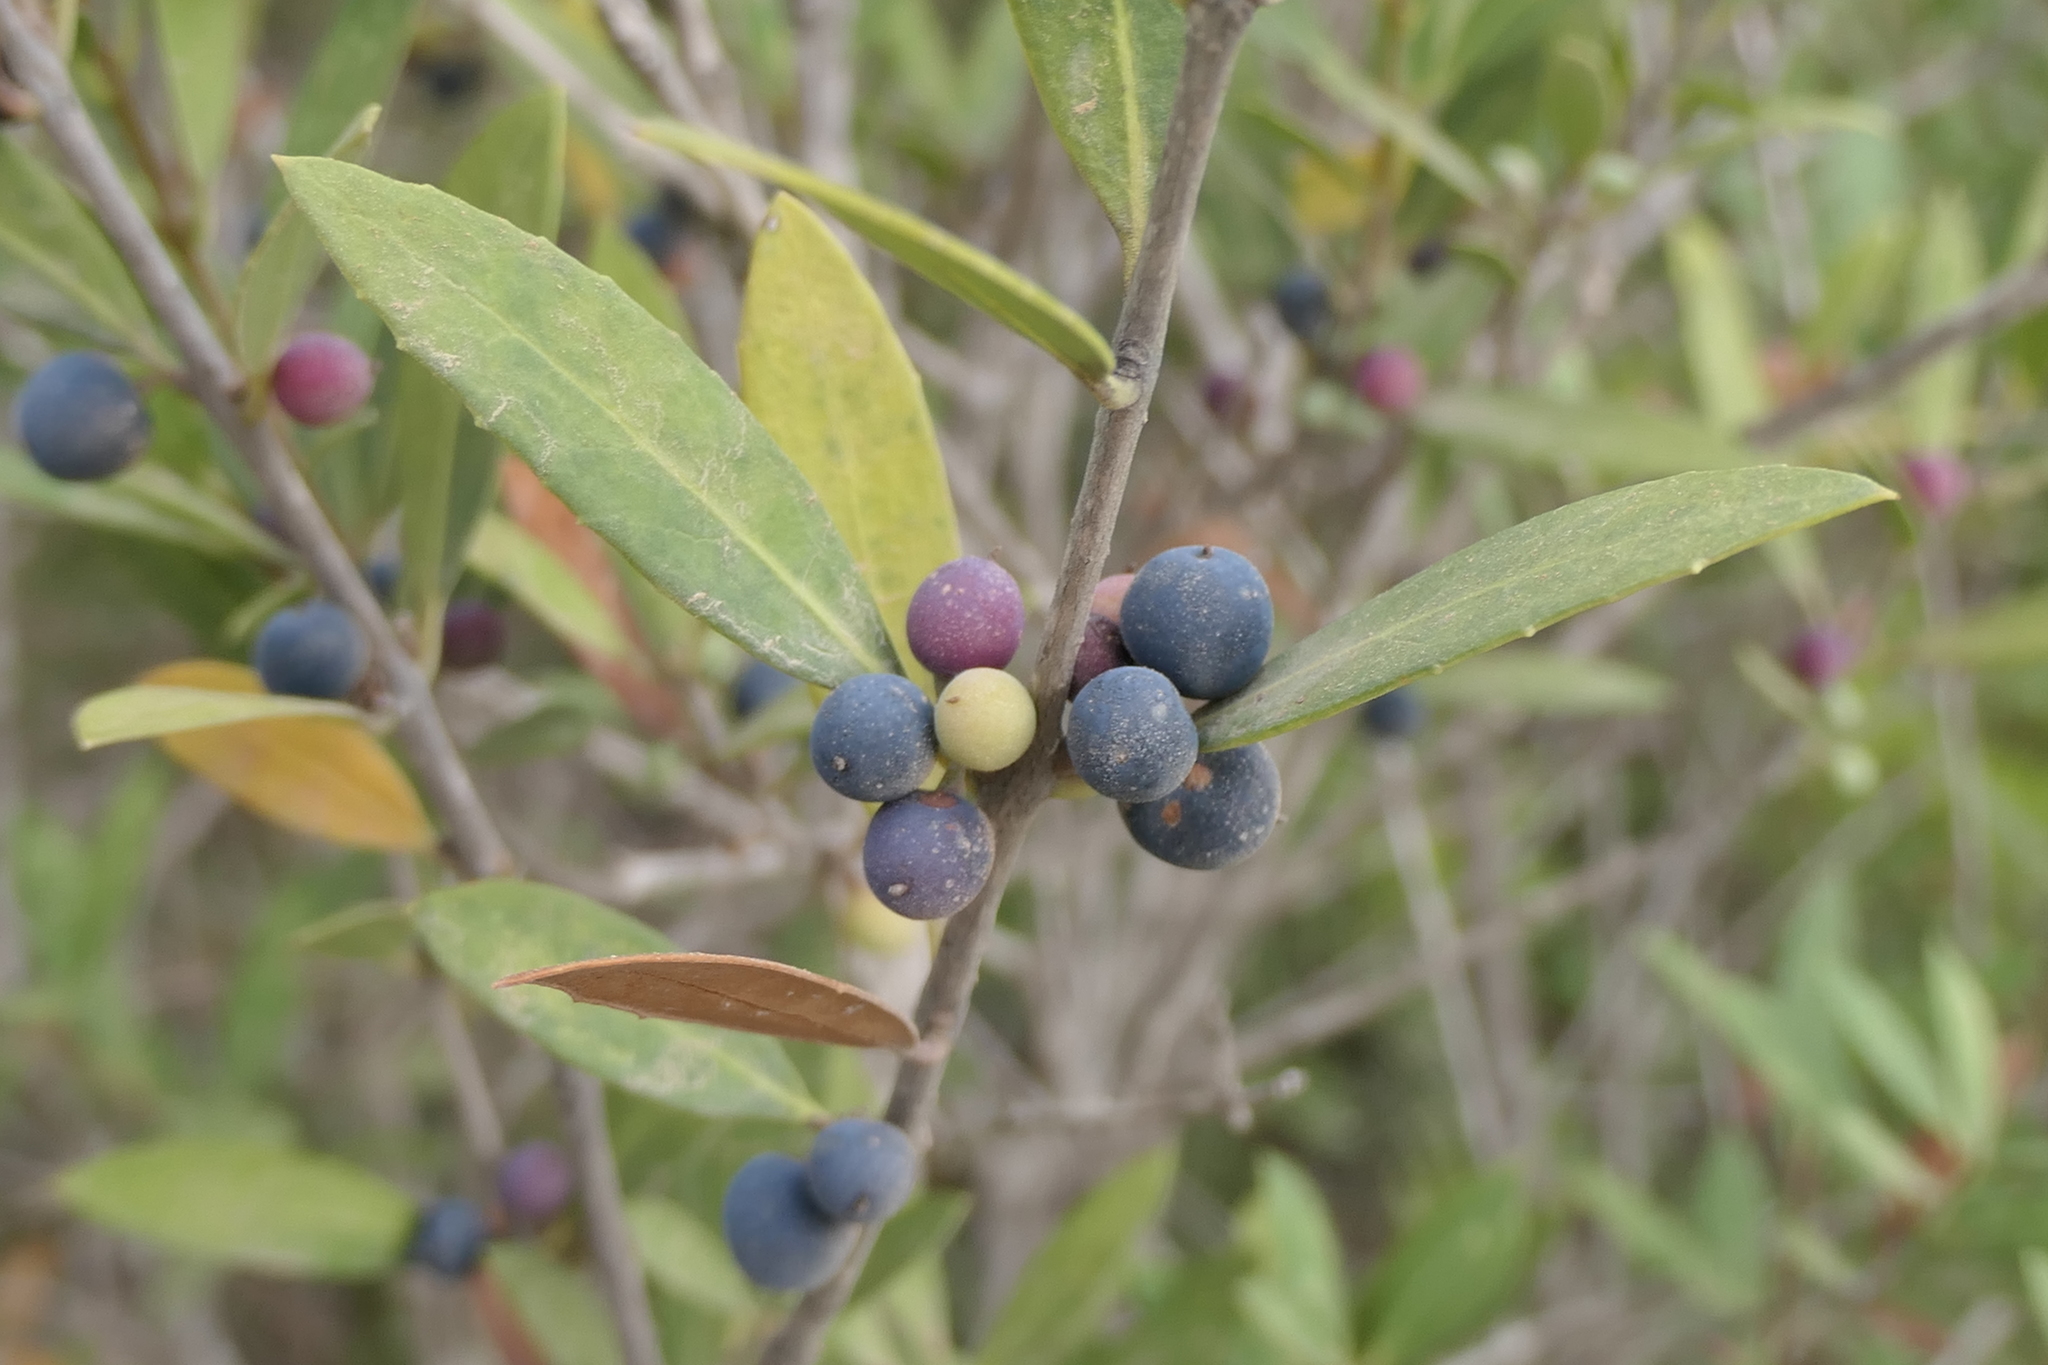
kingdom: Plantae
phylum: Tracheophyta
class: Magnoliopsida
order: Lamiales
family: Oleaceae
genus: Phillyrea
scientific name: Phillyrea angustifolia
